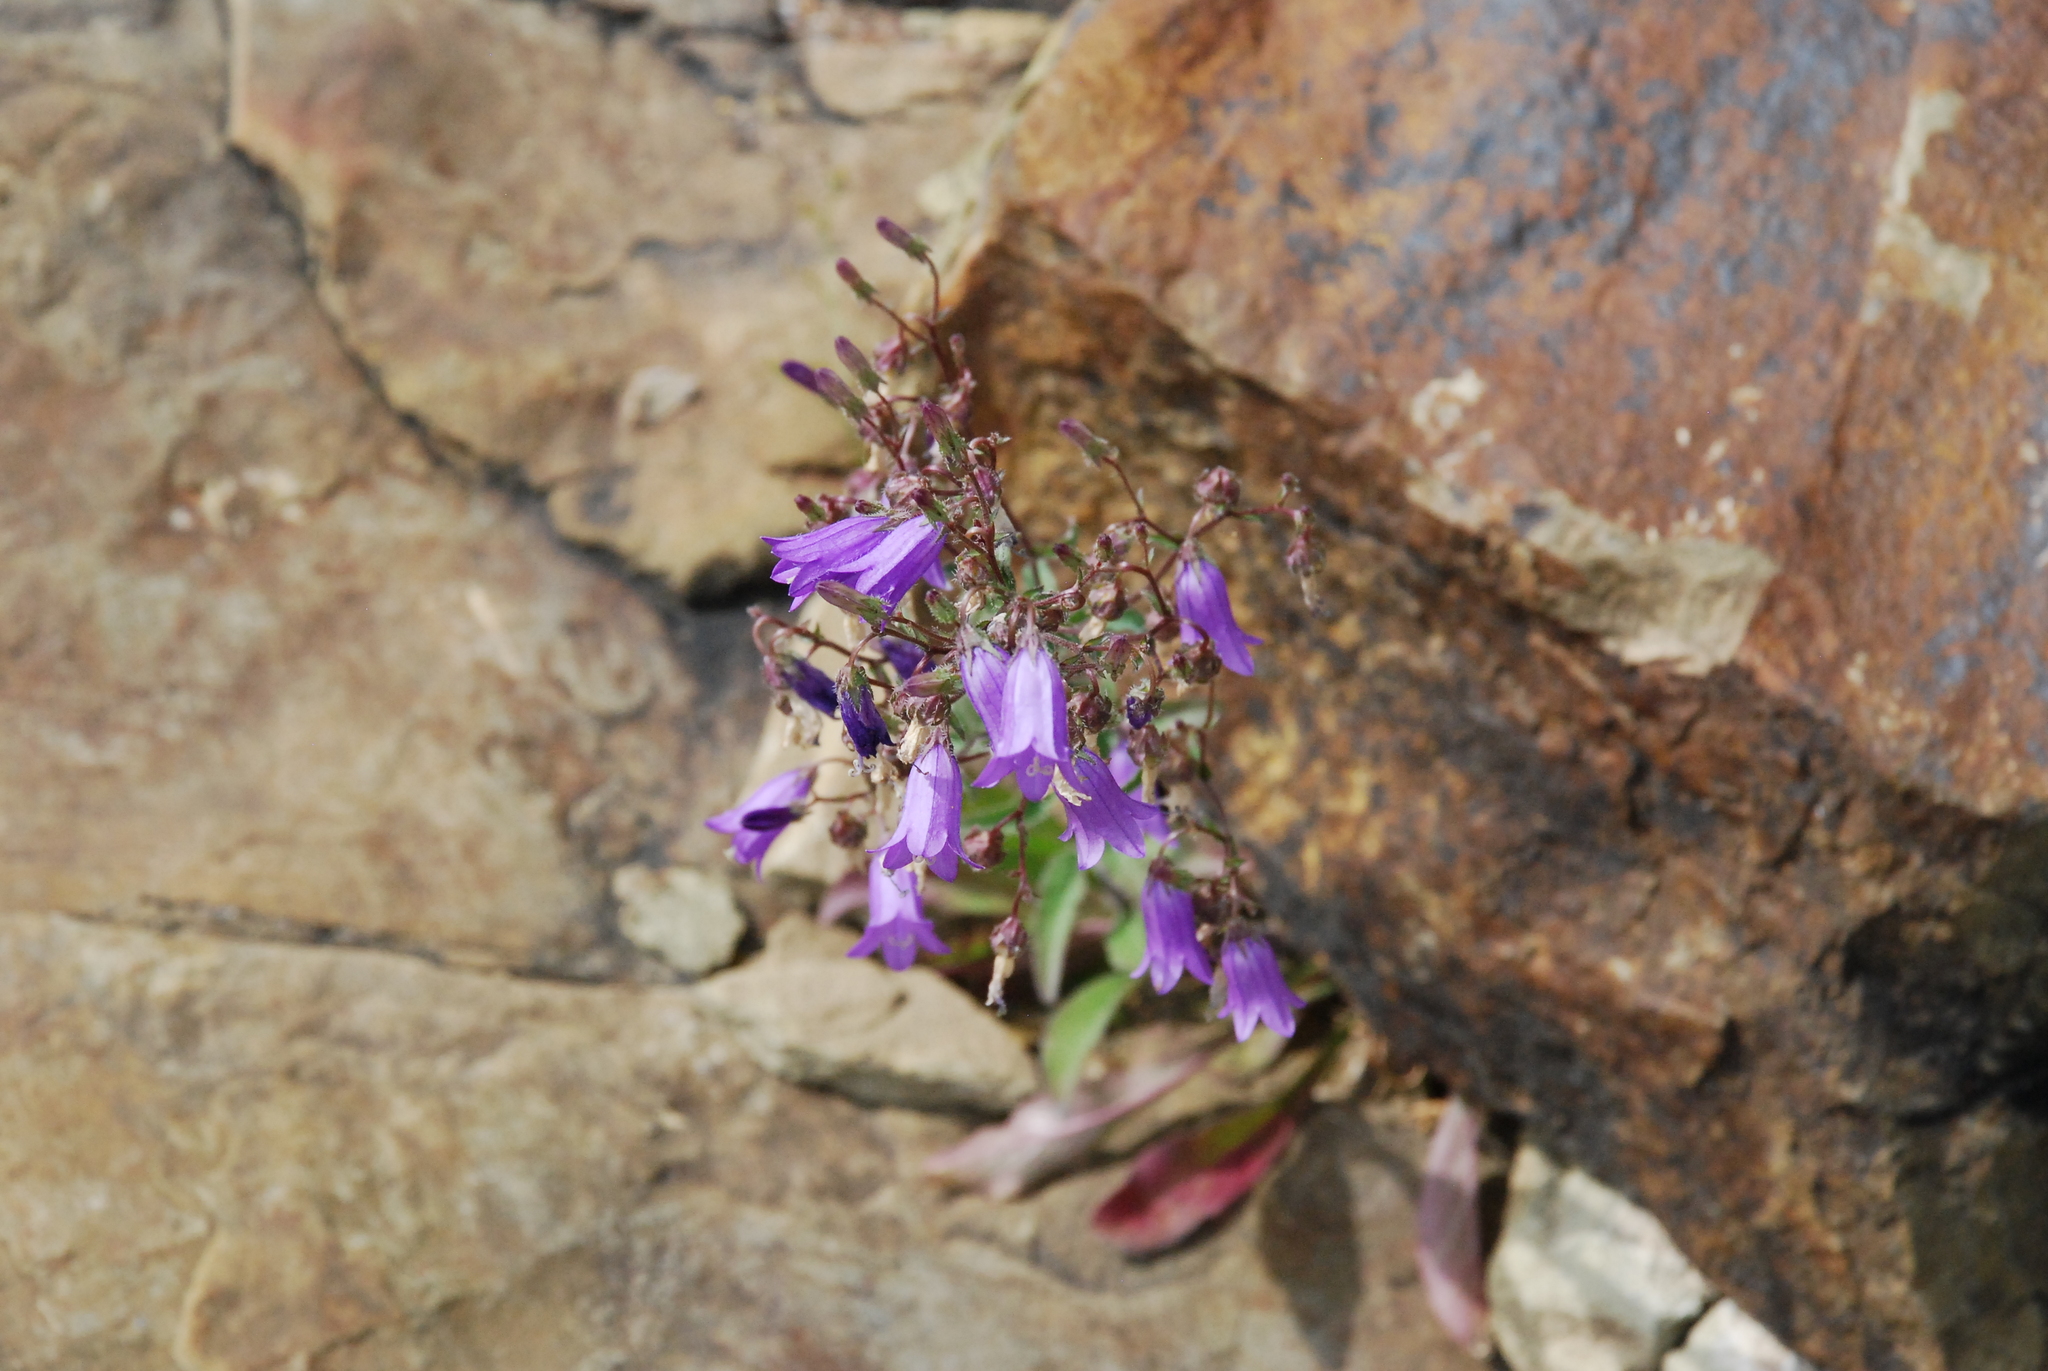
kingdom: Plantae
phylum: Tracheophyta
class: Magnoliopsida
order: Asterales
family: Campanulaceae
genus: Campanula
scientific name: Campanula sibirica
